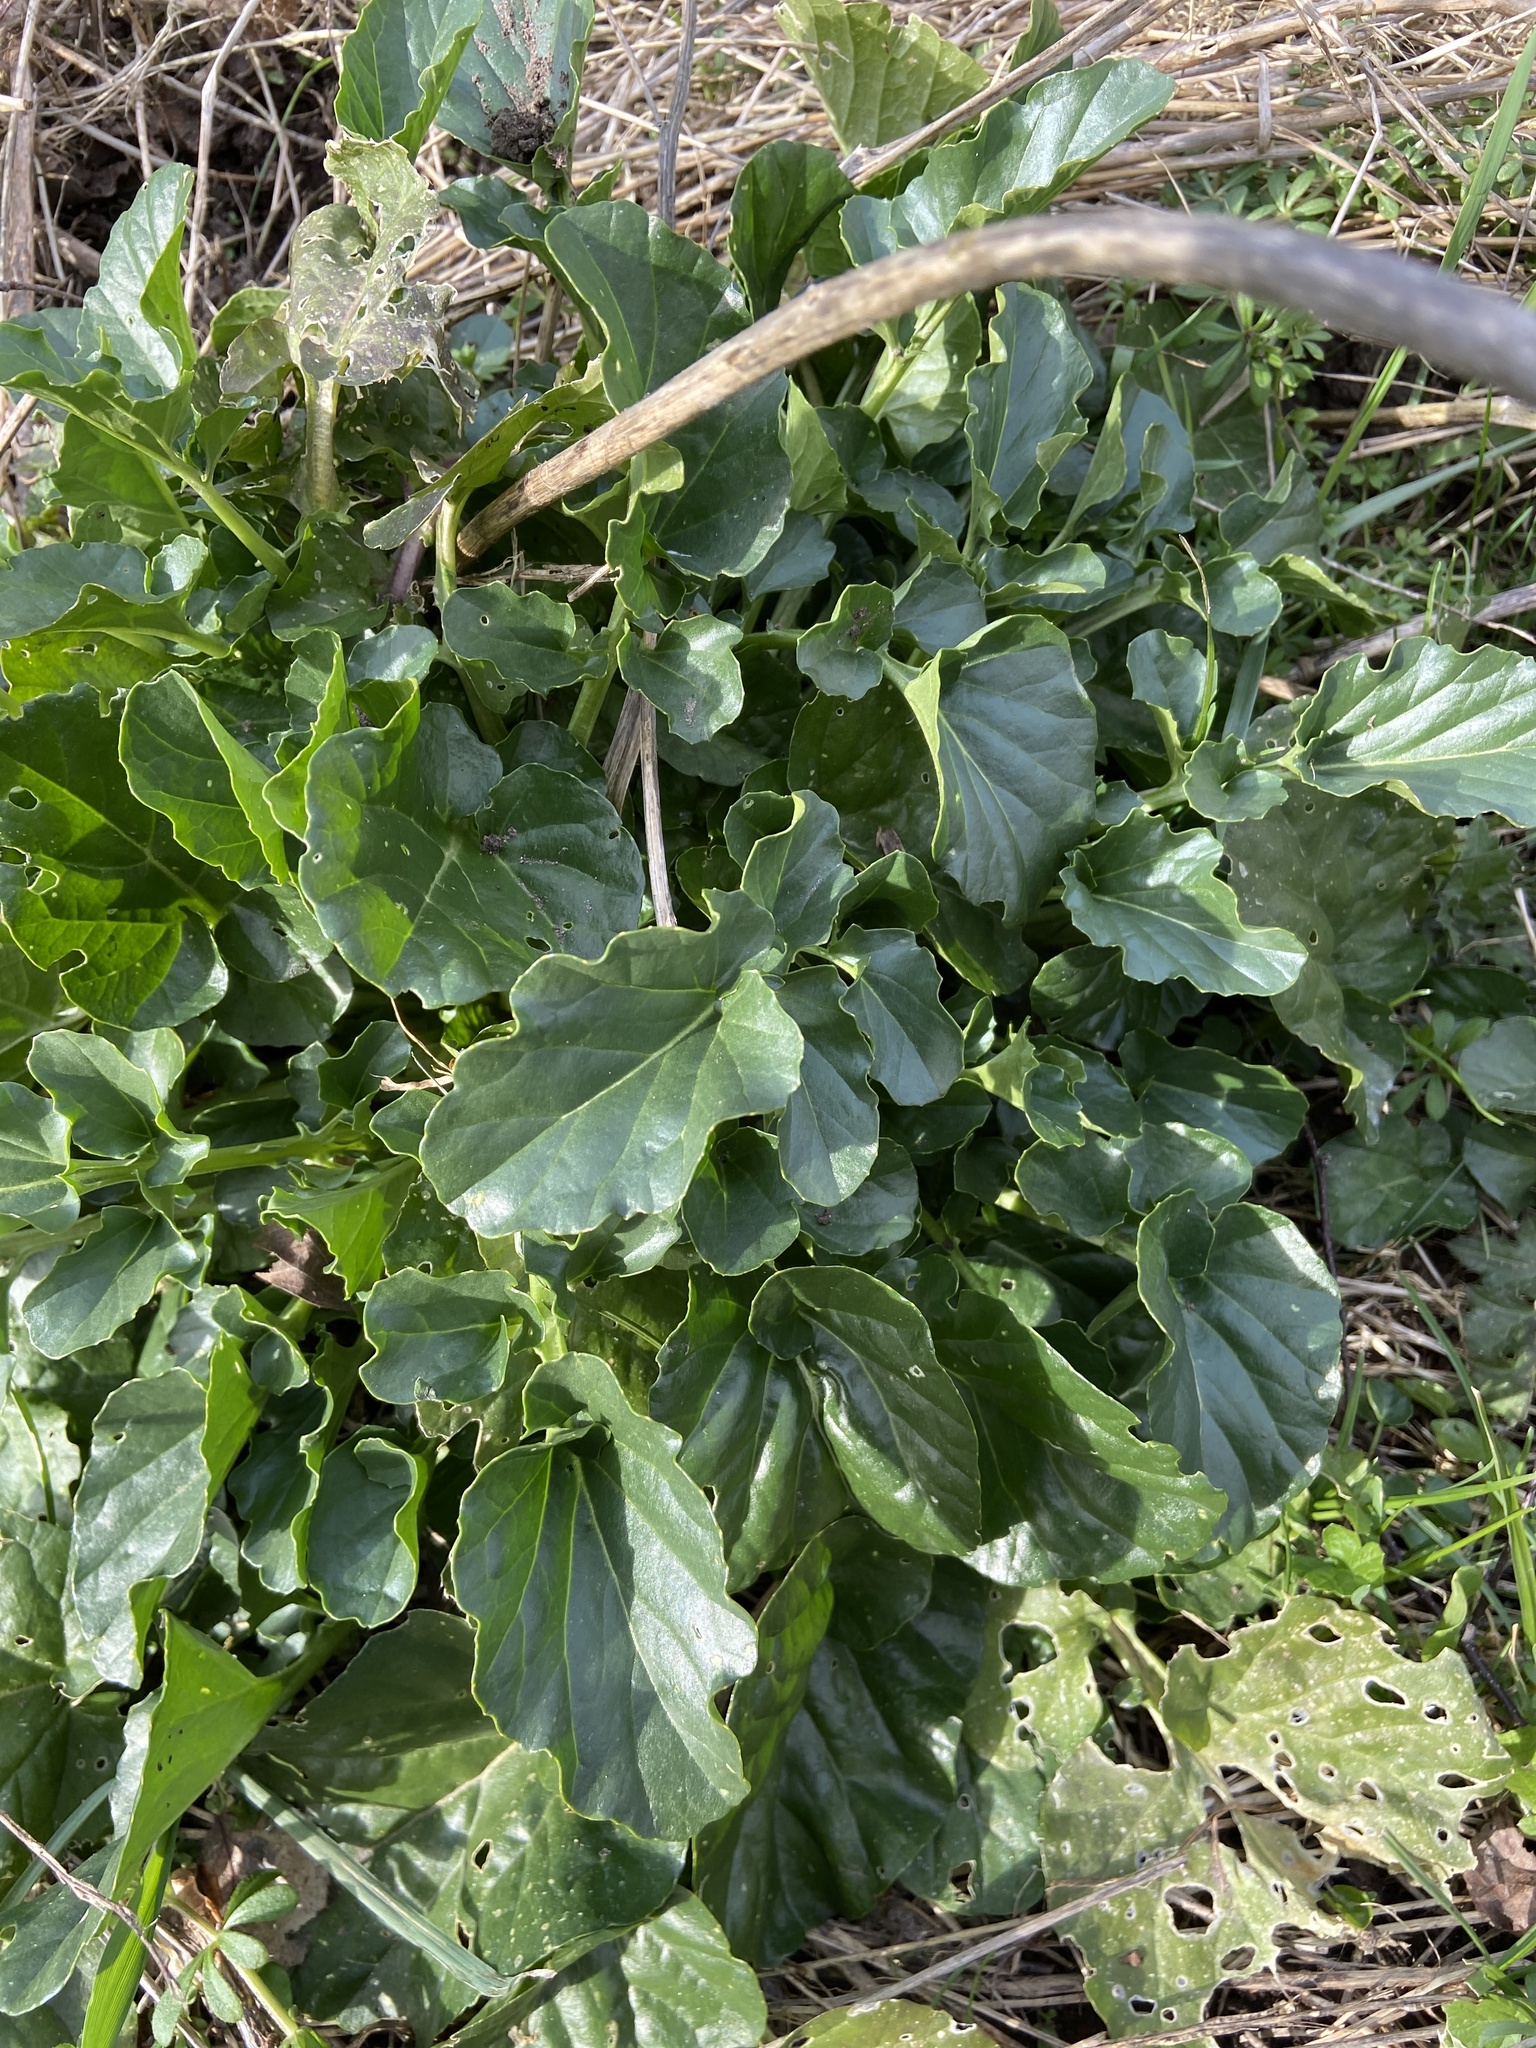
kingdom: Plantae
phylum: Tracheophyta
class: Magnoliopsida
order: Brassicales
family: Brassicaceae
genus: Barbarea
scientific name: Barbarea vulgaris
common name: Cressy-greens
